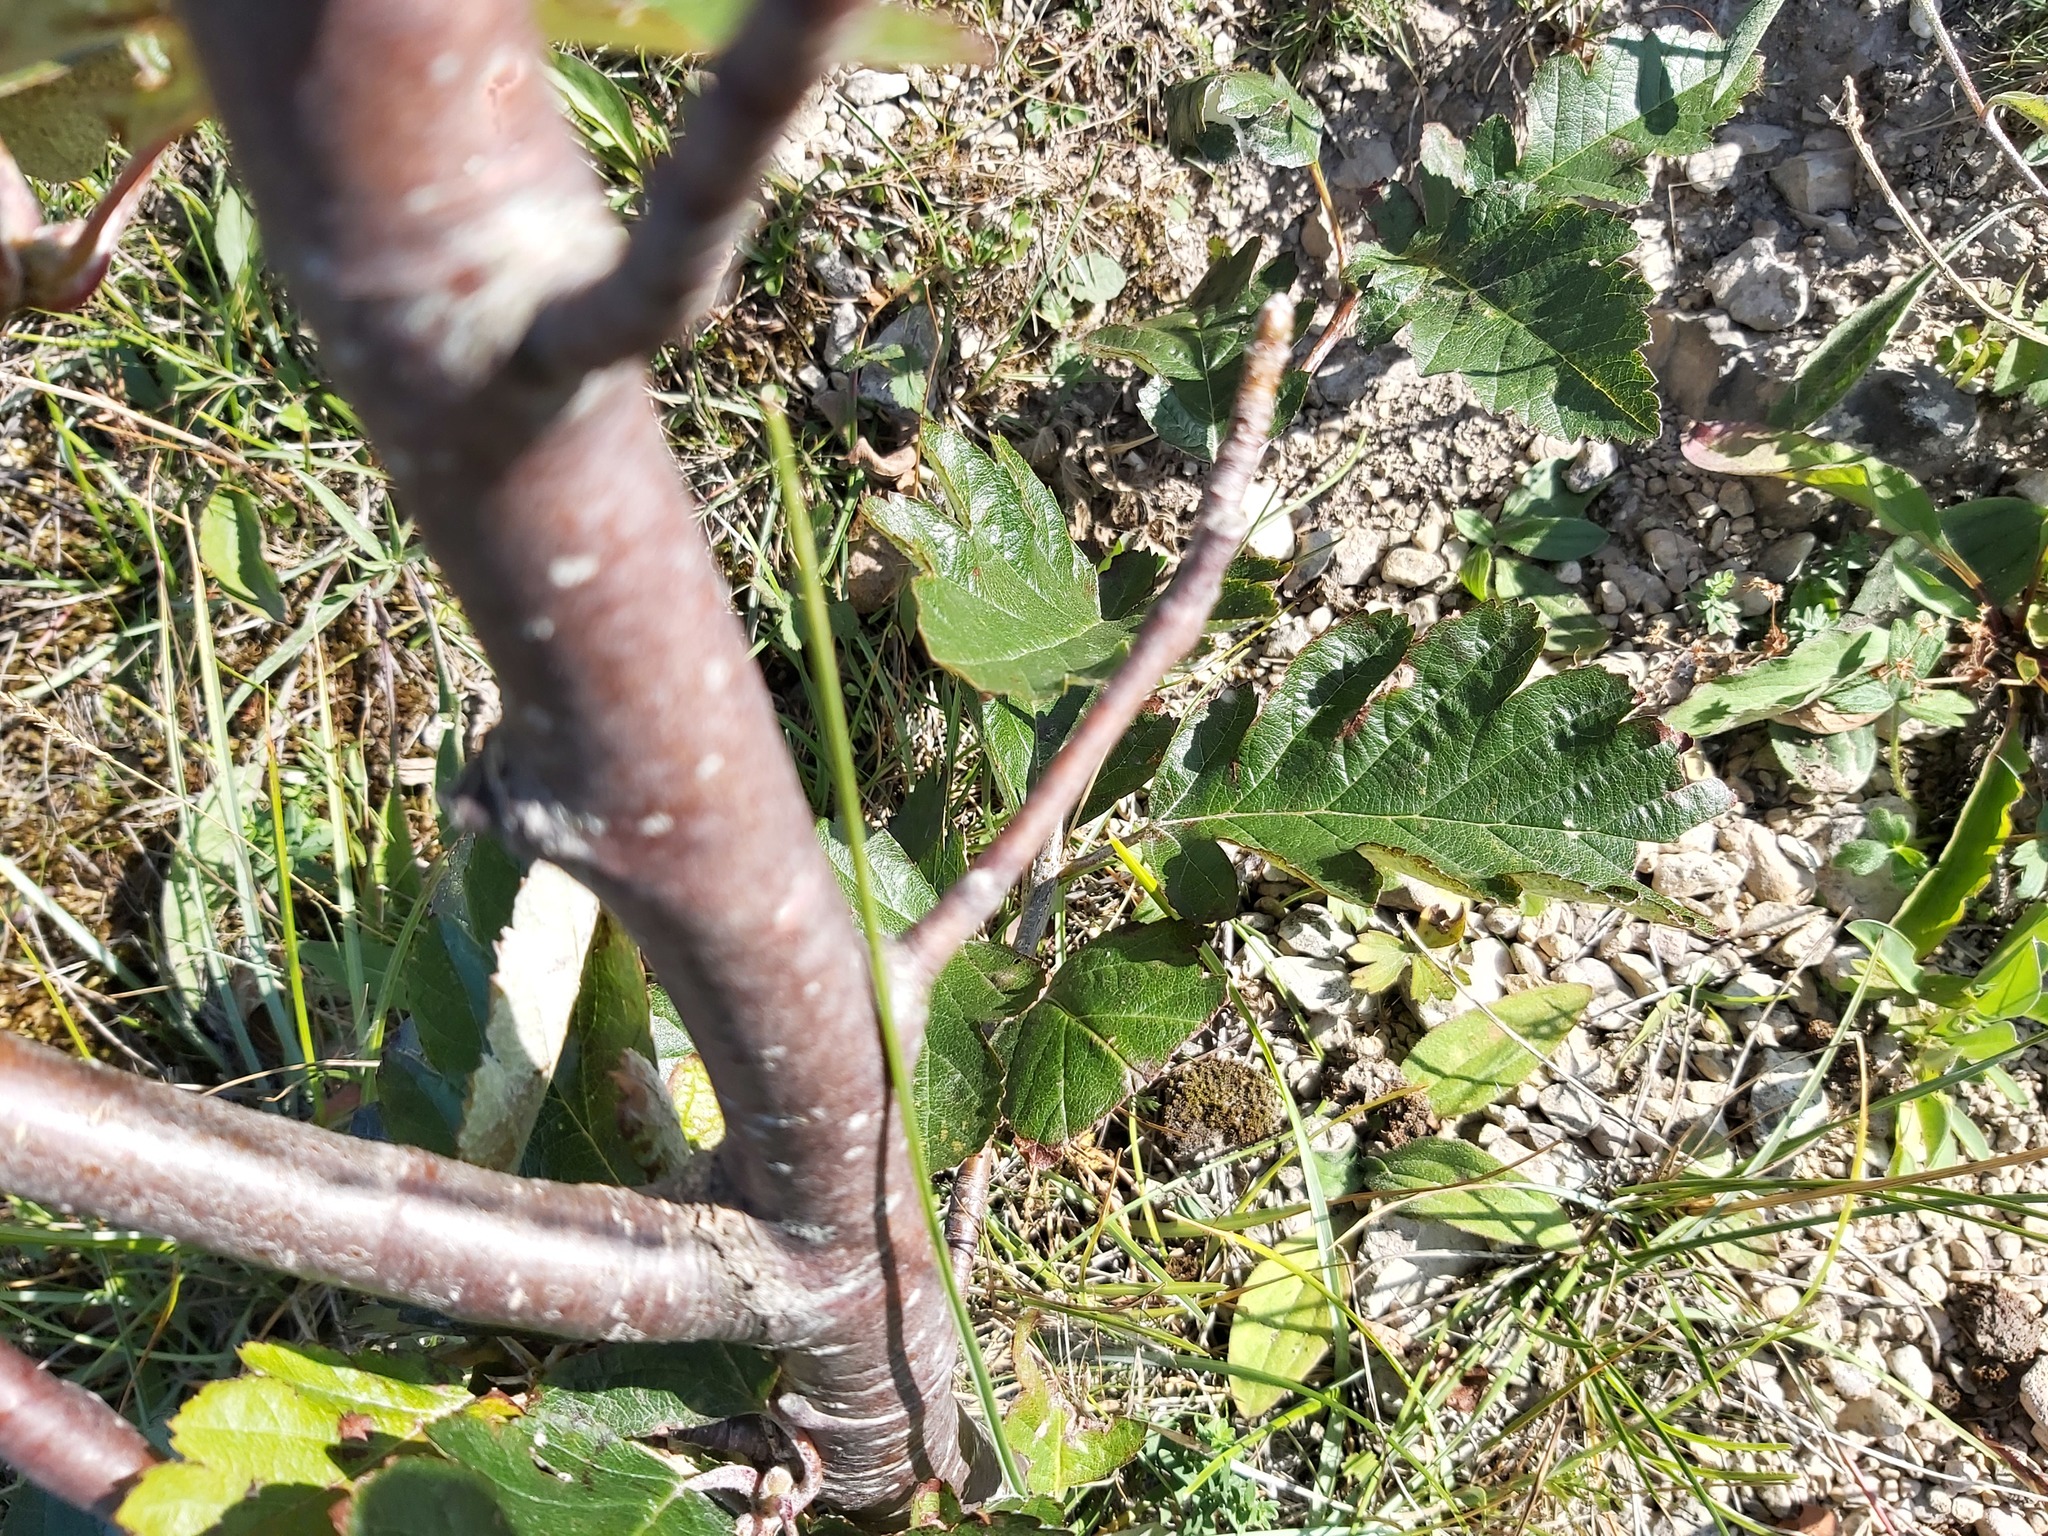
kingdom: Plantae
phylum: Tracheophyta
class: Magnoliopsida
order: Rosales
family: Rosaceae
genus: Scandosorbus
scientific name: Scandosorbus intermedia
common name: Swedish whitebeam
